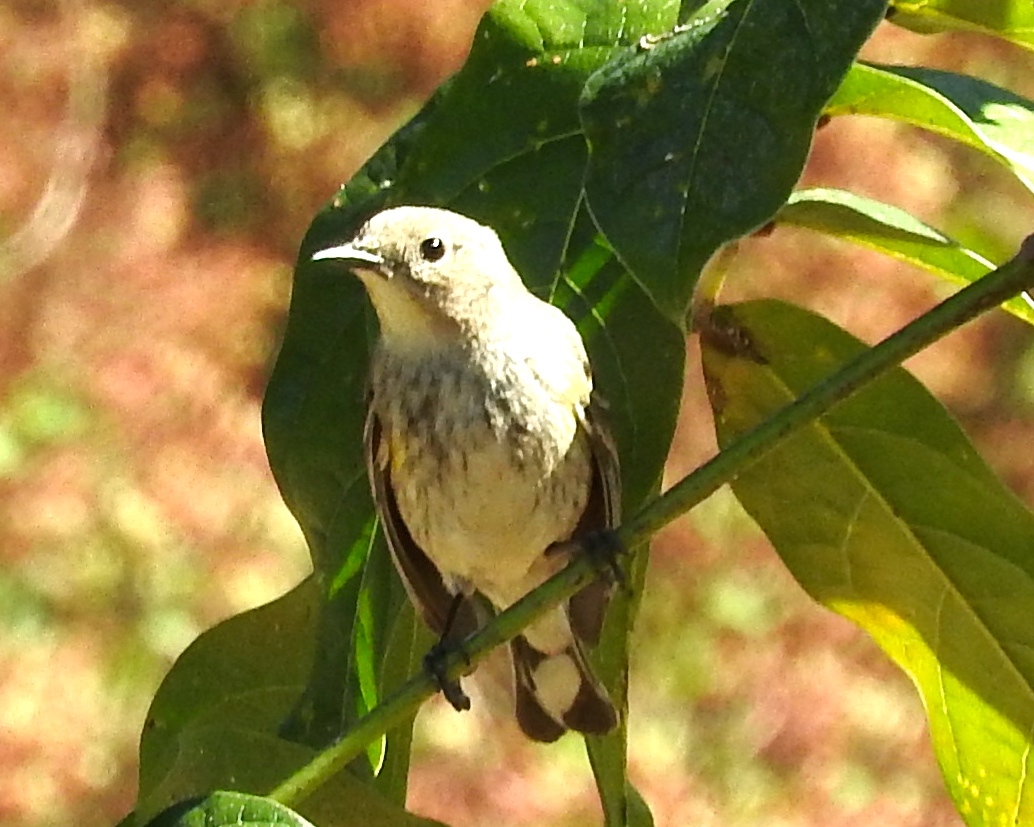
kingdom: Animalia
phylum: Chordata
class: Aves
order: Passeriformes
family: Parulidae
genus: Setophaga
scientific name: Setophaga coronata
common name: Myrtle warbler
